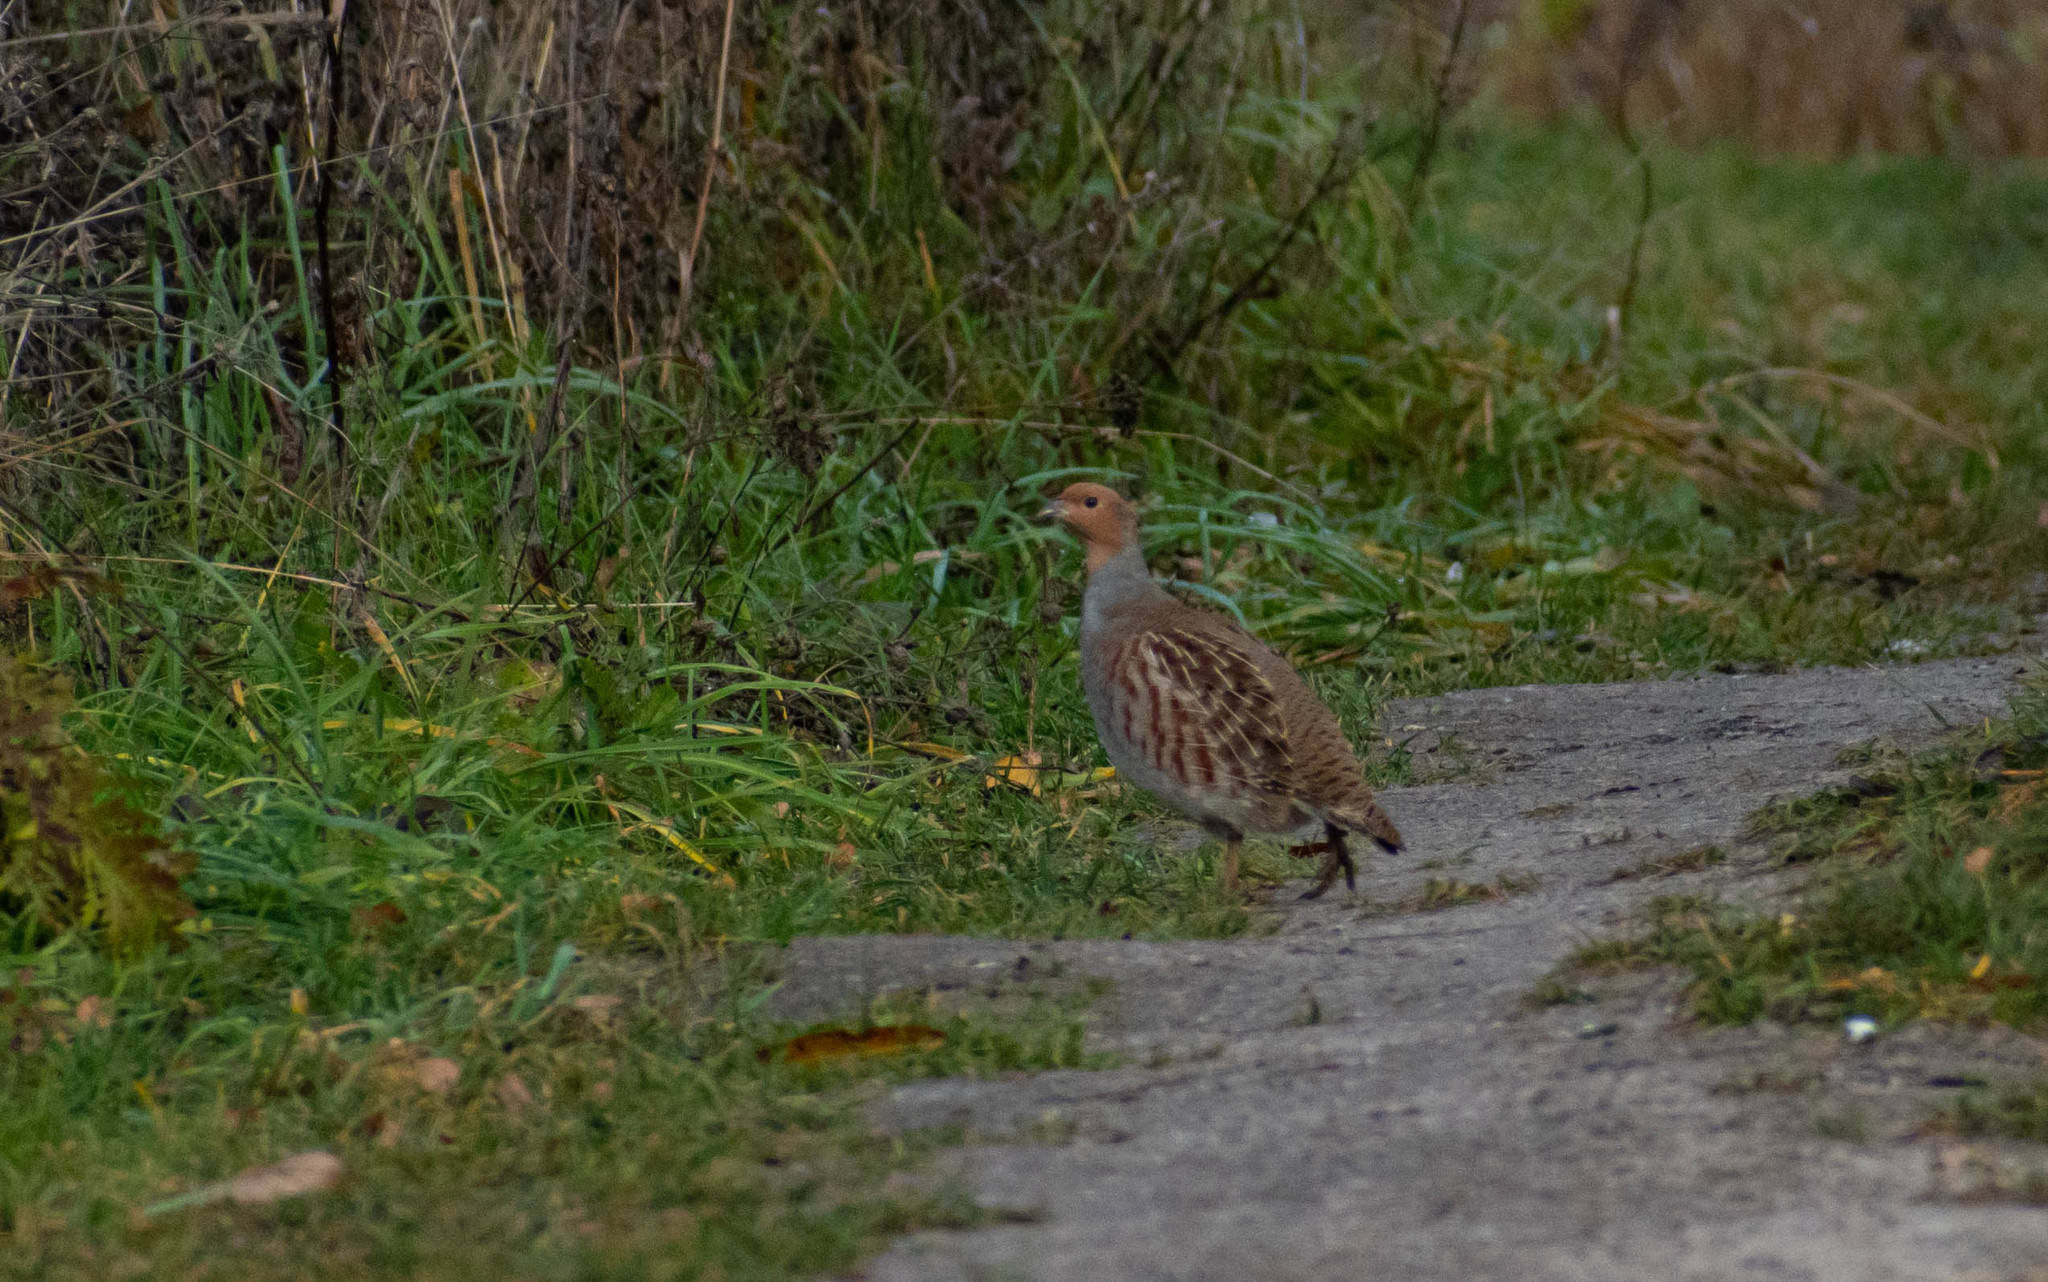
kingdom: Animalia
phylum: Chordata
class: Aves
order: Galliformes
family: Phasianidae
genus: Perdix
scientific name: Perdix perdix
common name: Grey partridge
